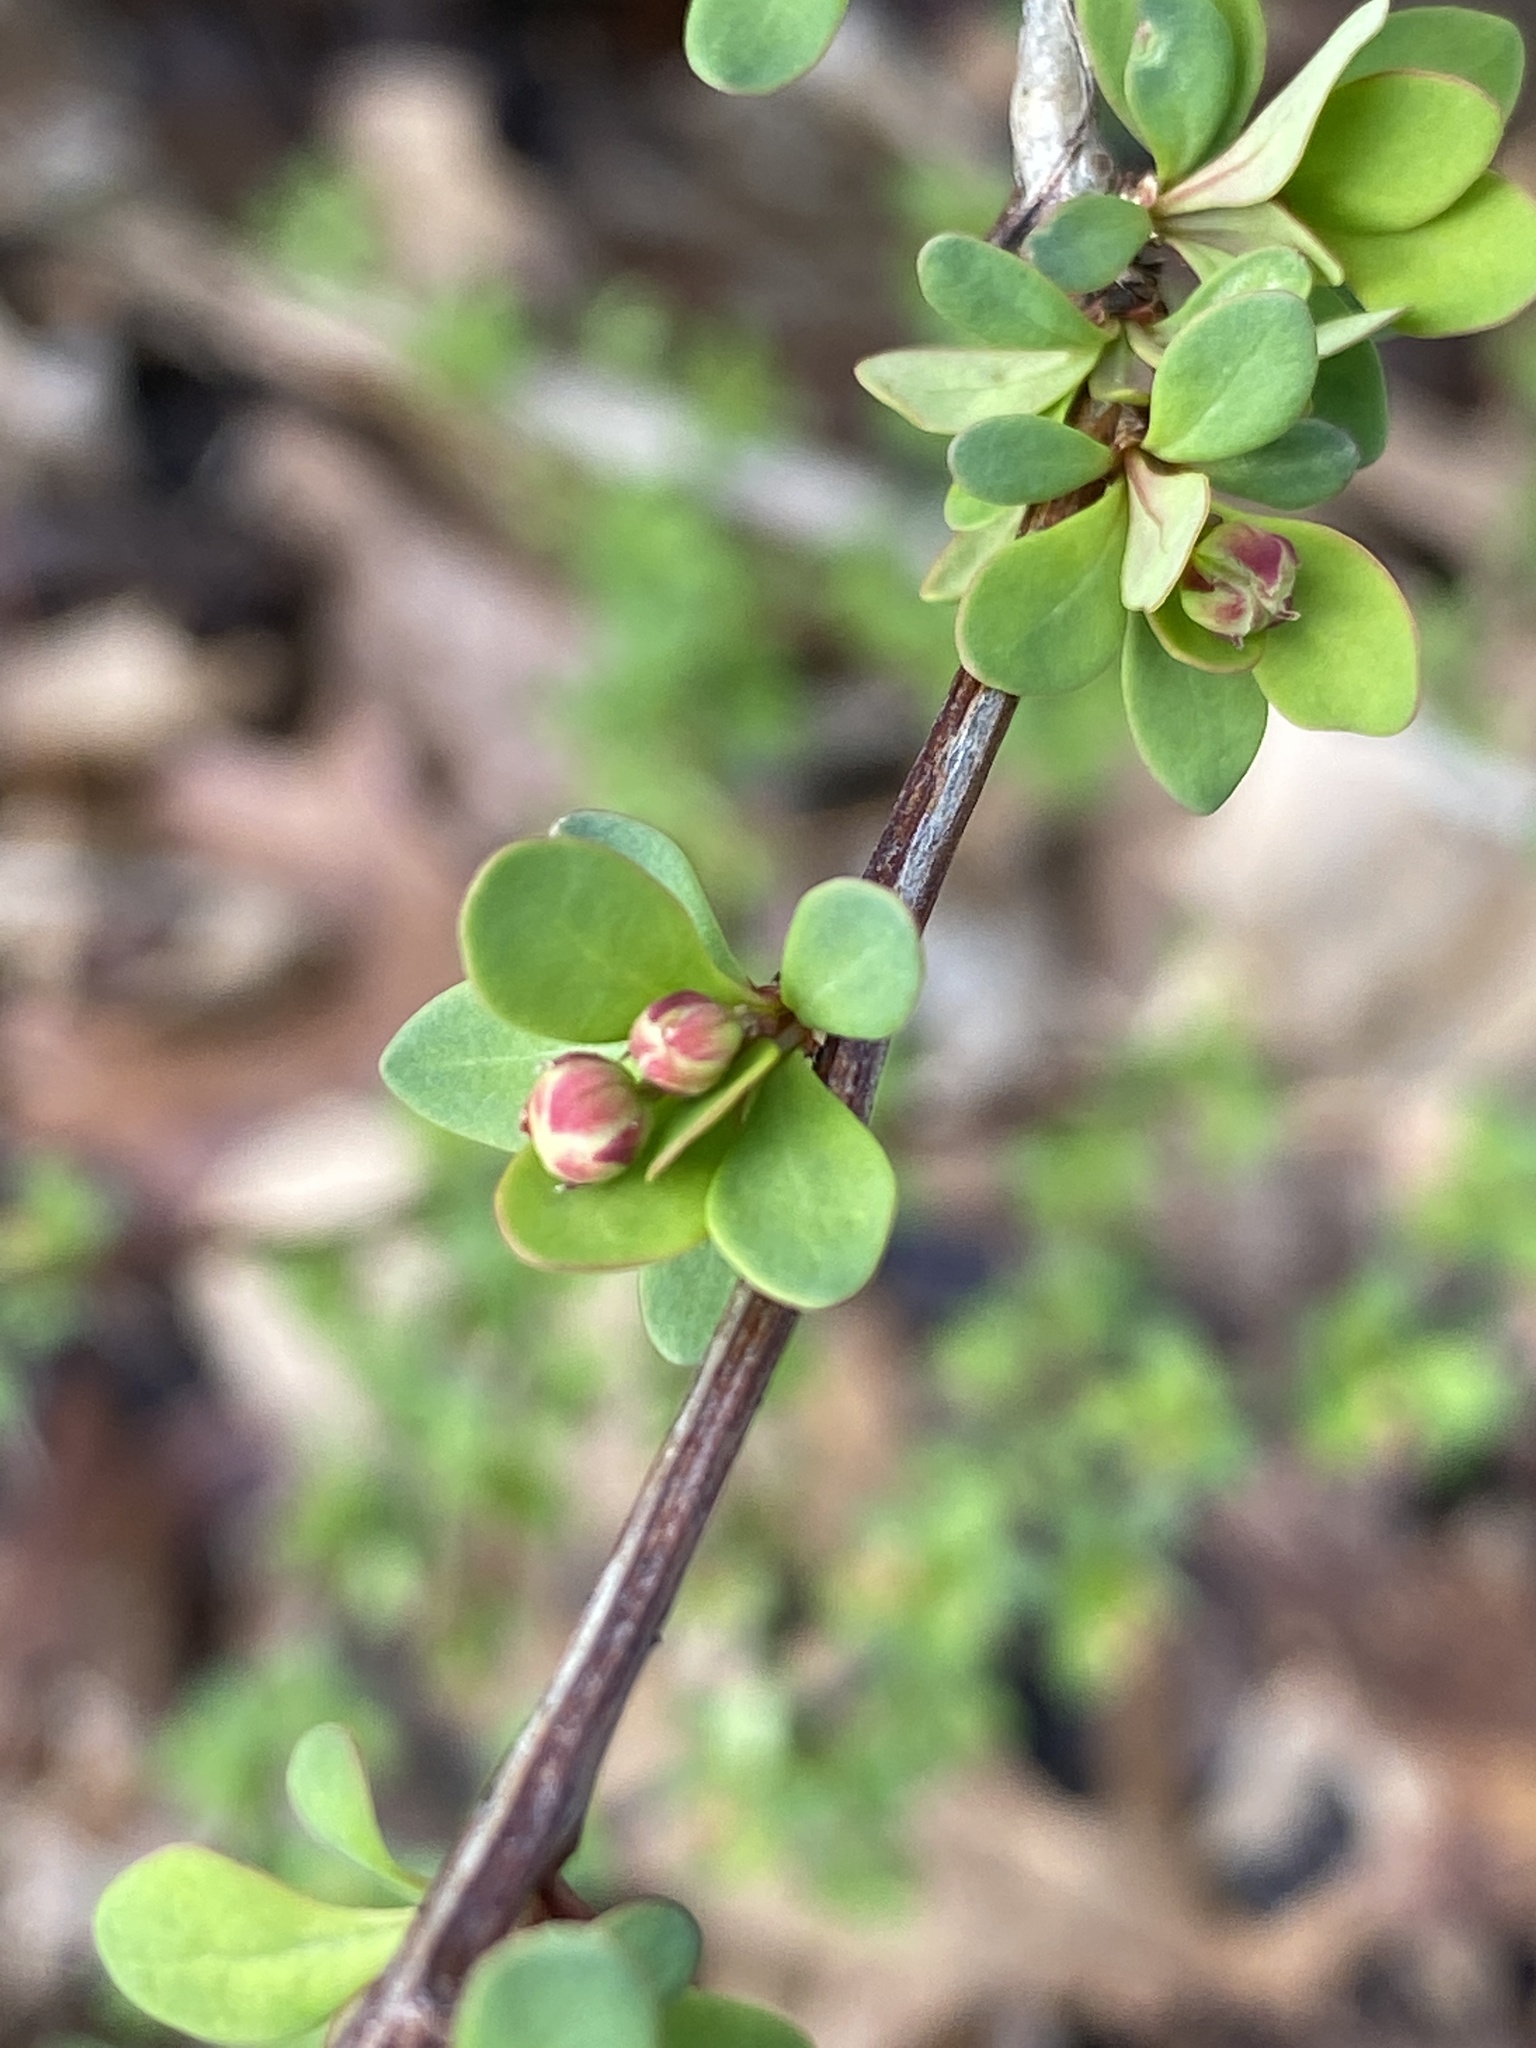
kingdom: Plantae
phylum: Tracheophyta
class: Magnoliopsida
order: Ranunculales
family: Berberidaceae
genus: Berberis
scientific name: Berberis thunbergii
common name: Japanese barberry
